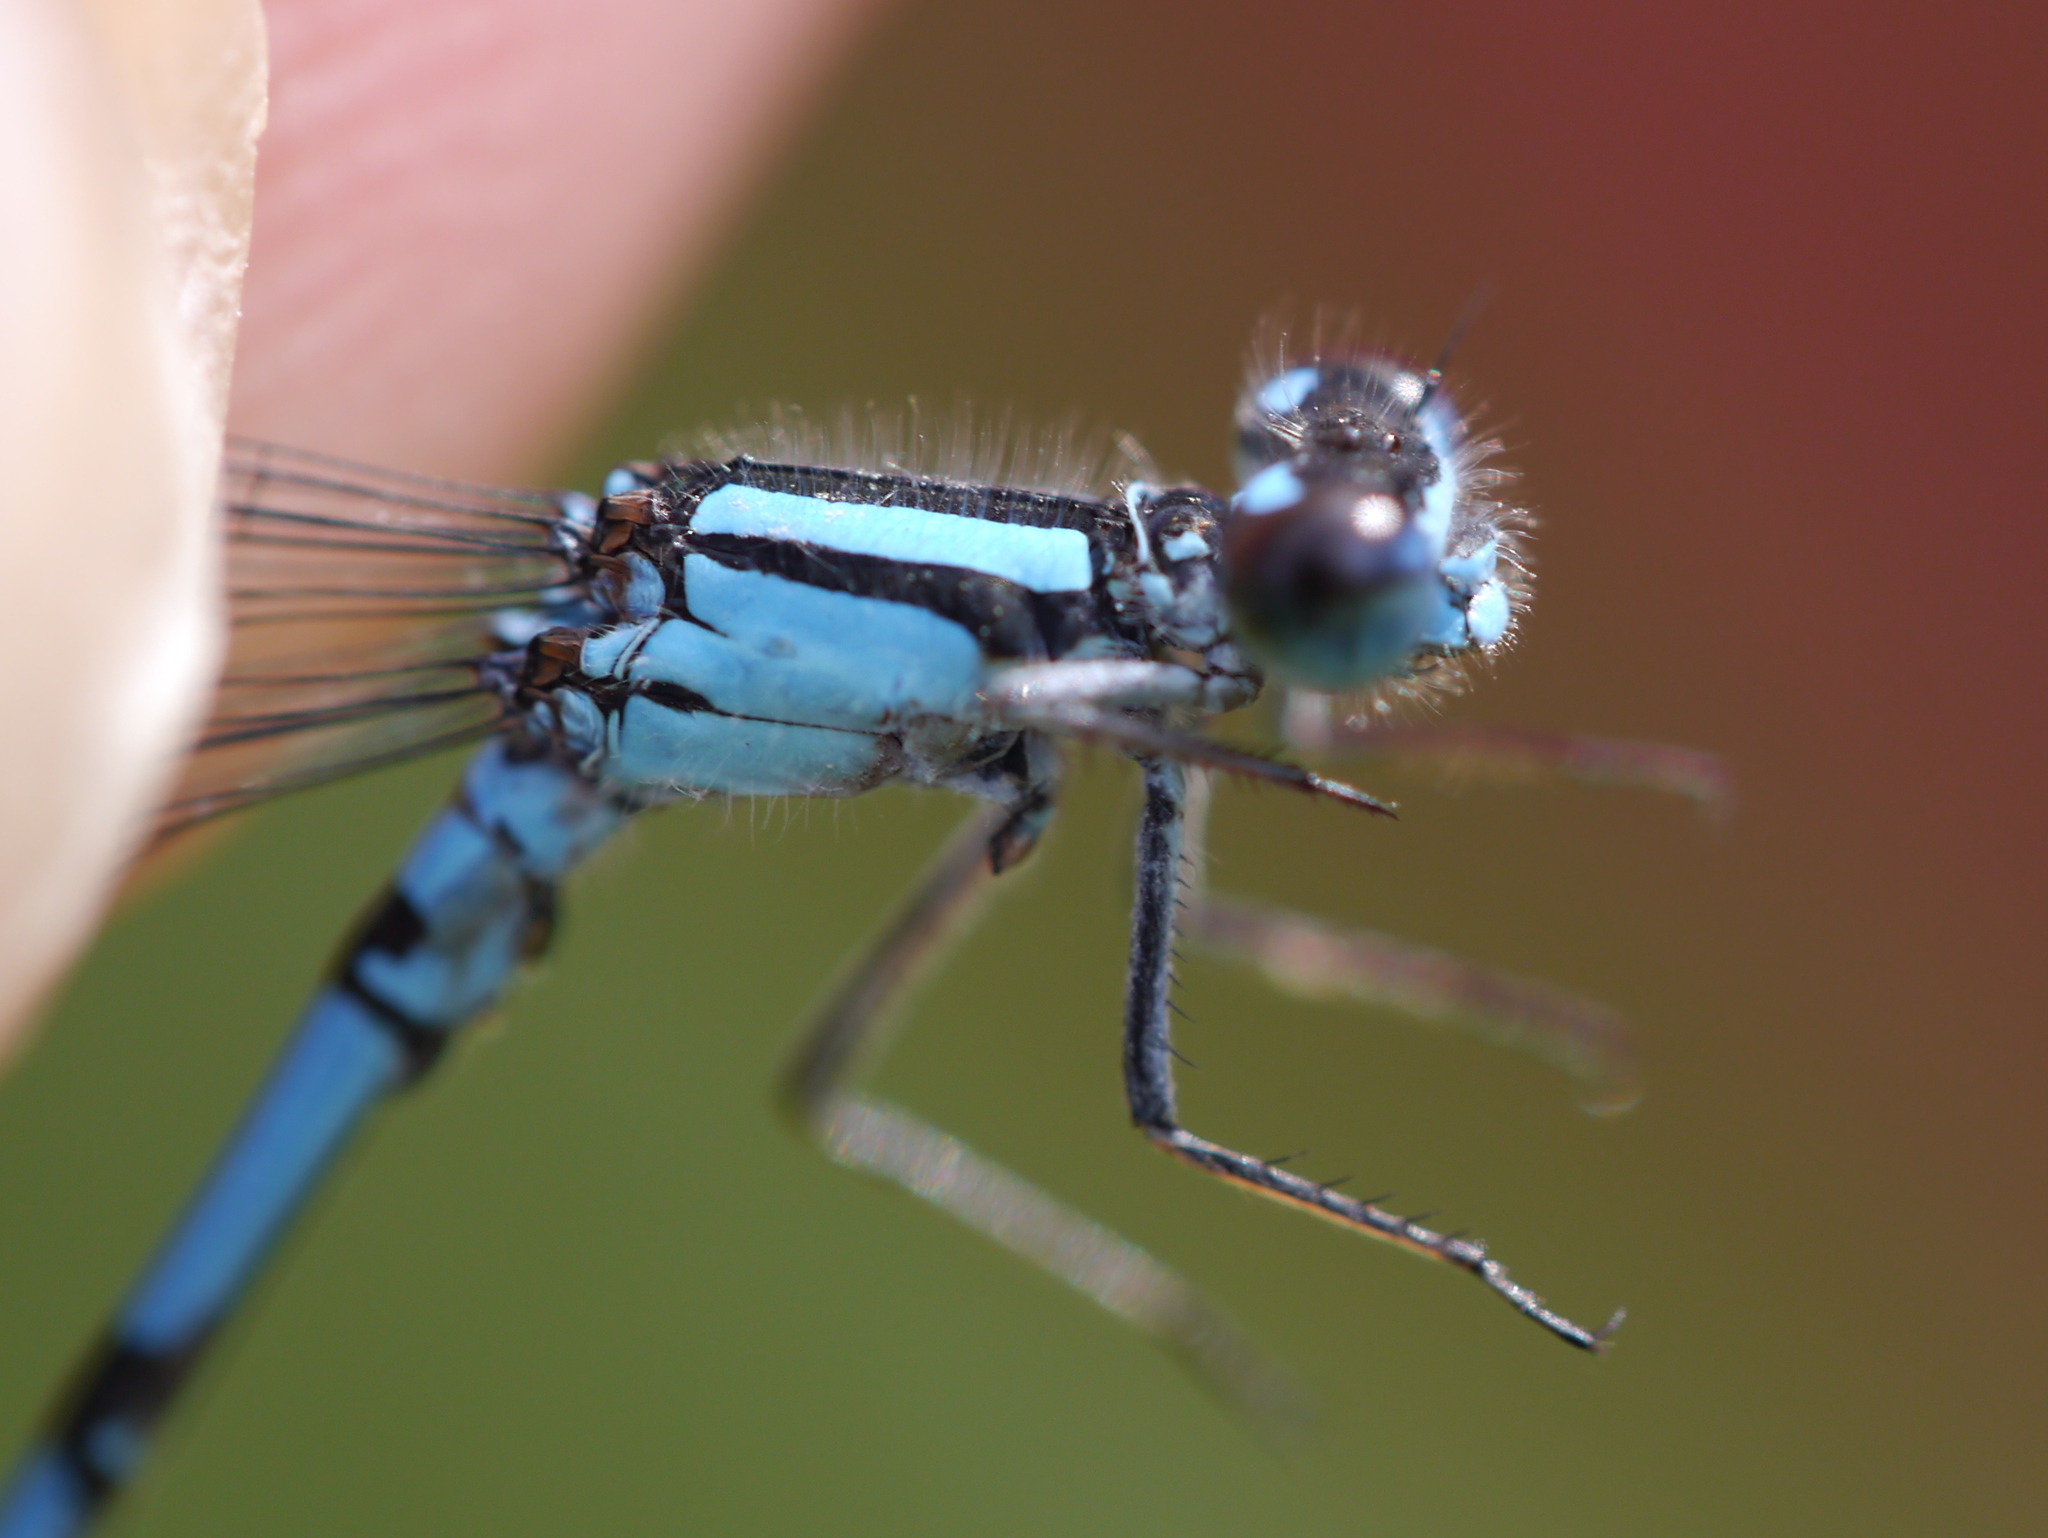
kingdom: Animalia
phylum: Arthropoda
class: Insecta
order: Odonata
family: Coenagrionidae
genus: Enallagma
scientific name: Enallagma hageni
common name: Hagen's bluet
